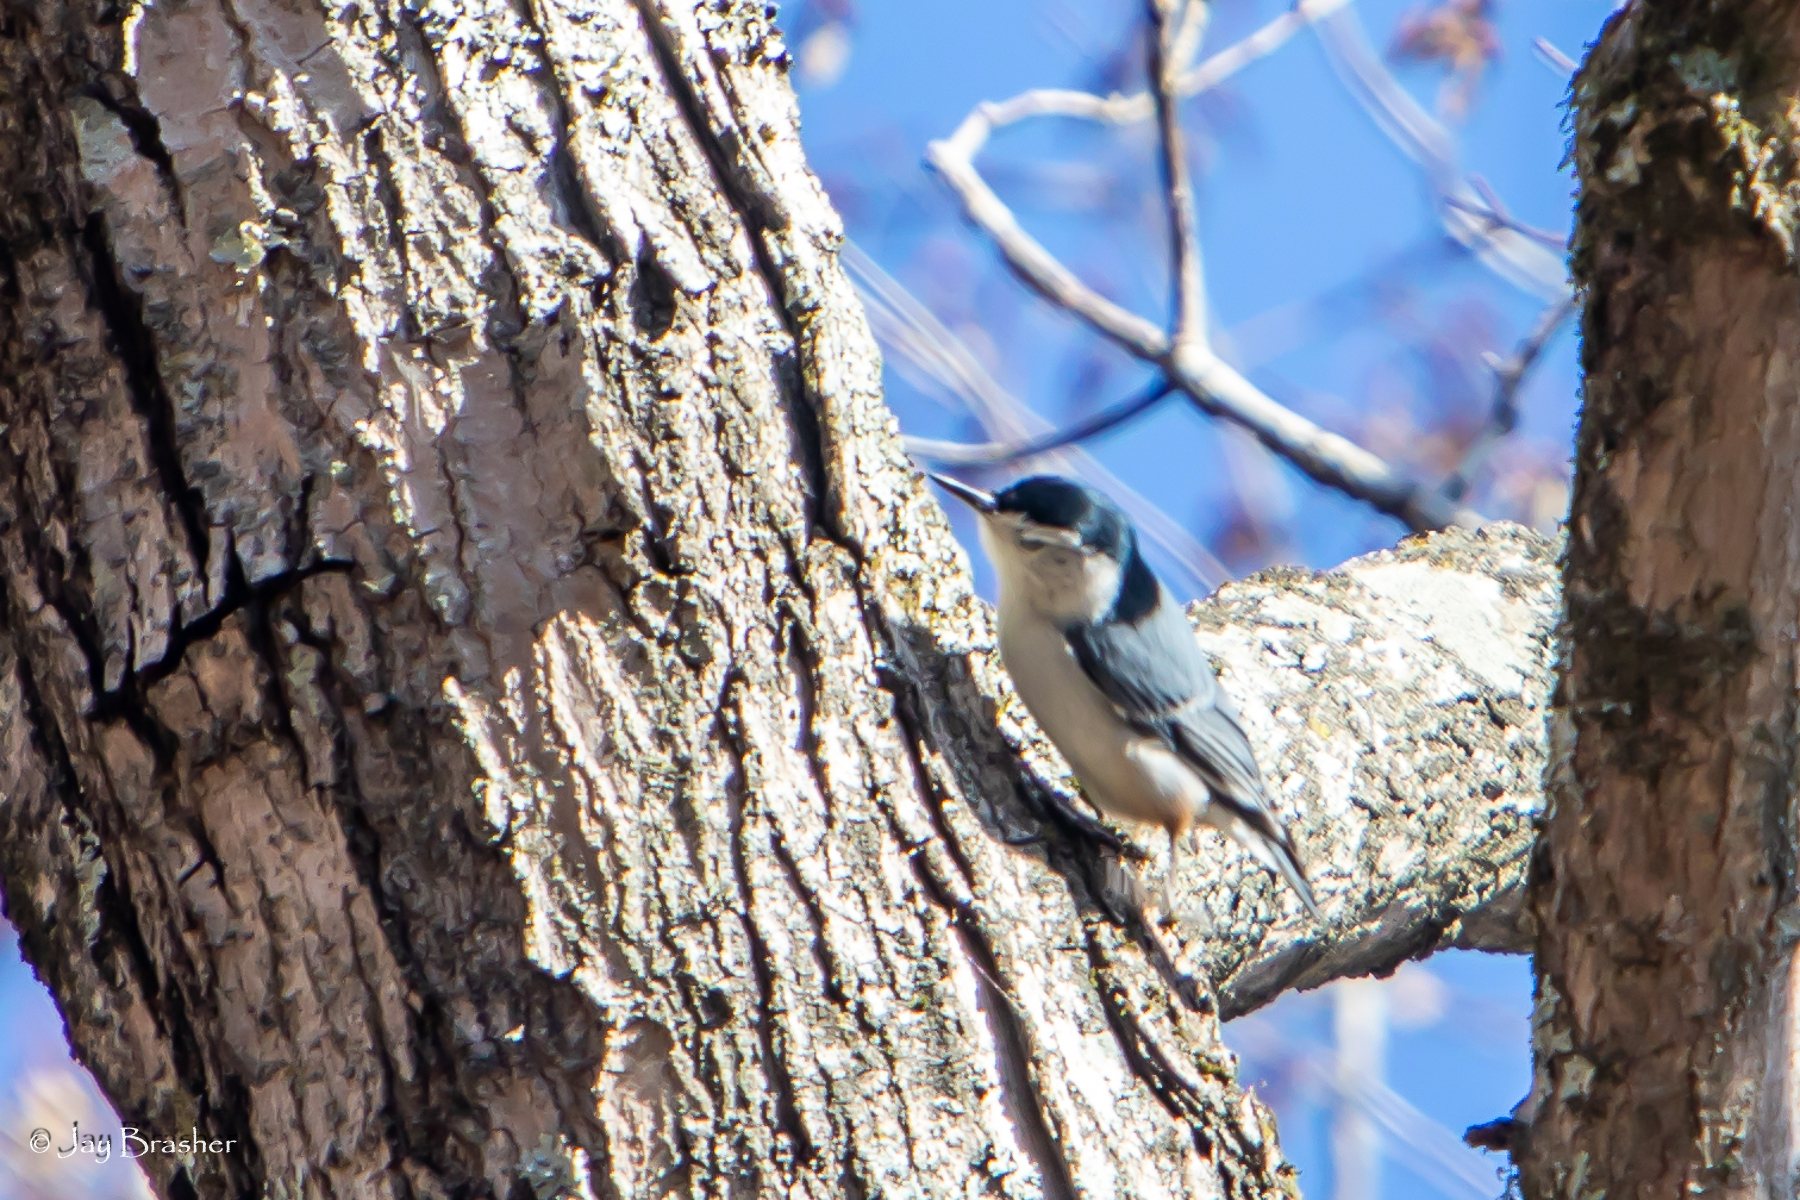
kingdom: Animalia
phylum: Chordata
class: Aves
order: Passeriformes
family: Sittidae
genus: Sitta
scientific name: Sitta carolinensis
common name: White-breasted nuthatch
